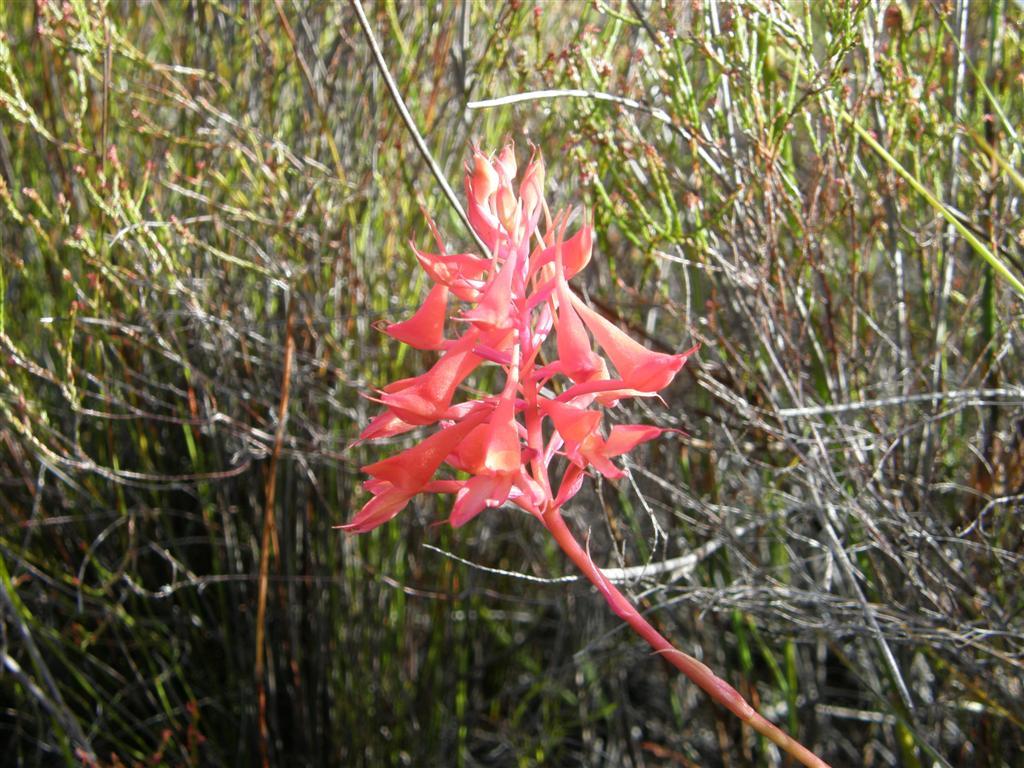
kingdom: Plantae
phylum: Tracheophyta
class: Liliopsida
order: Asparagales
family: Orchidaceae
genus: Disa
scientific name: Disa ferruginea
